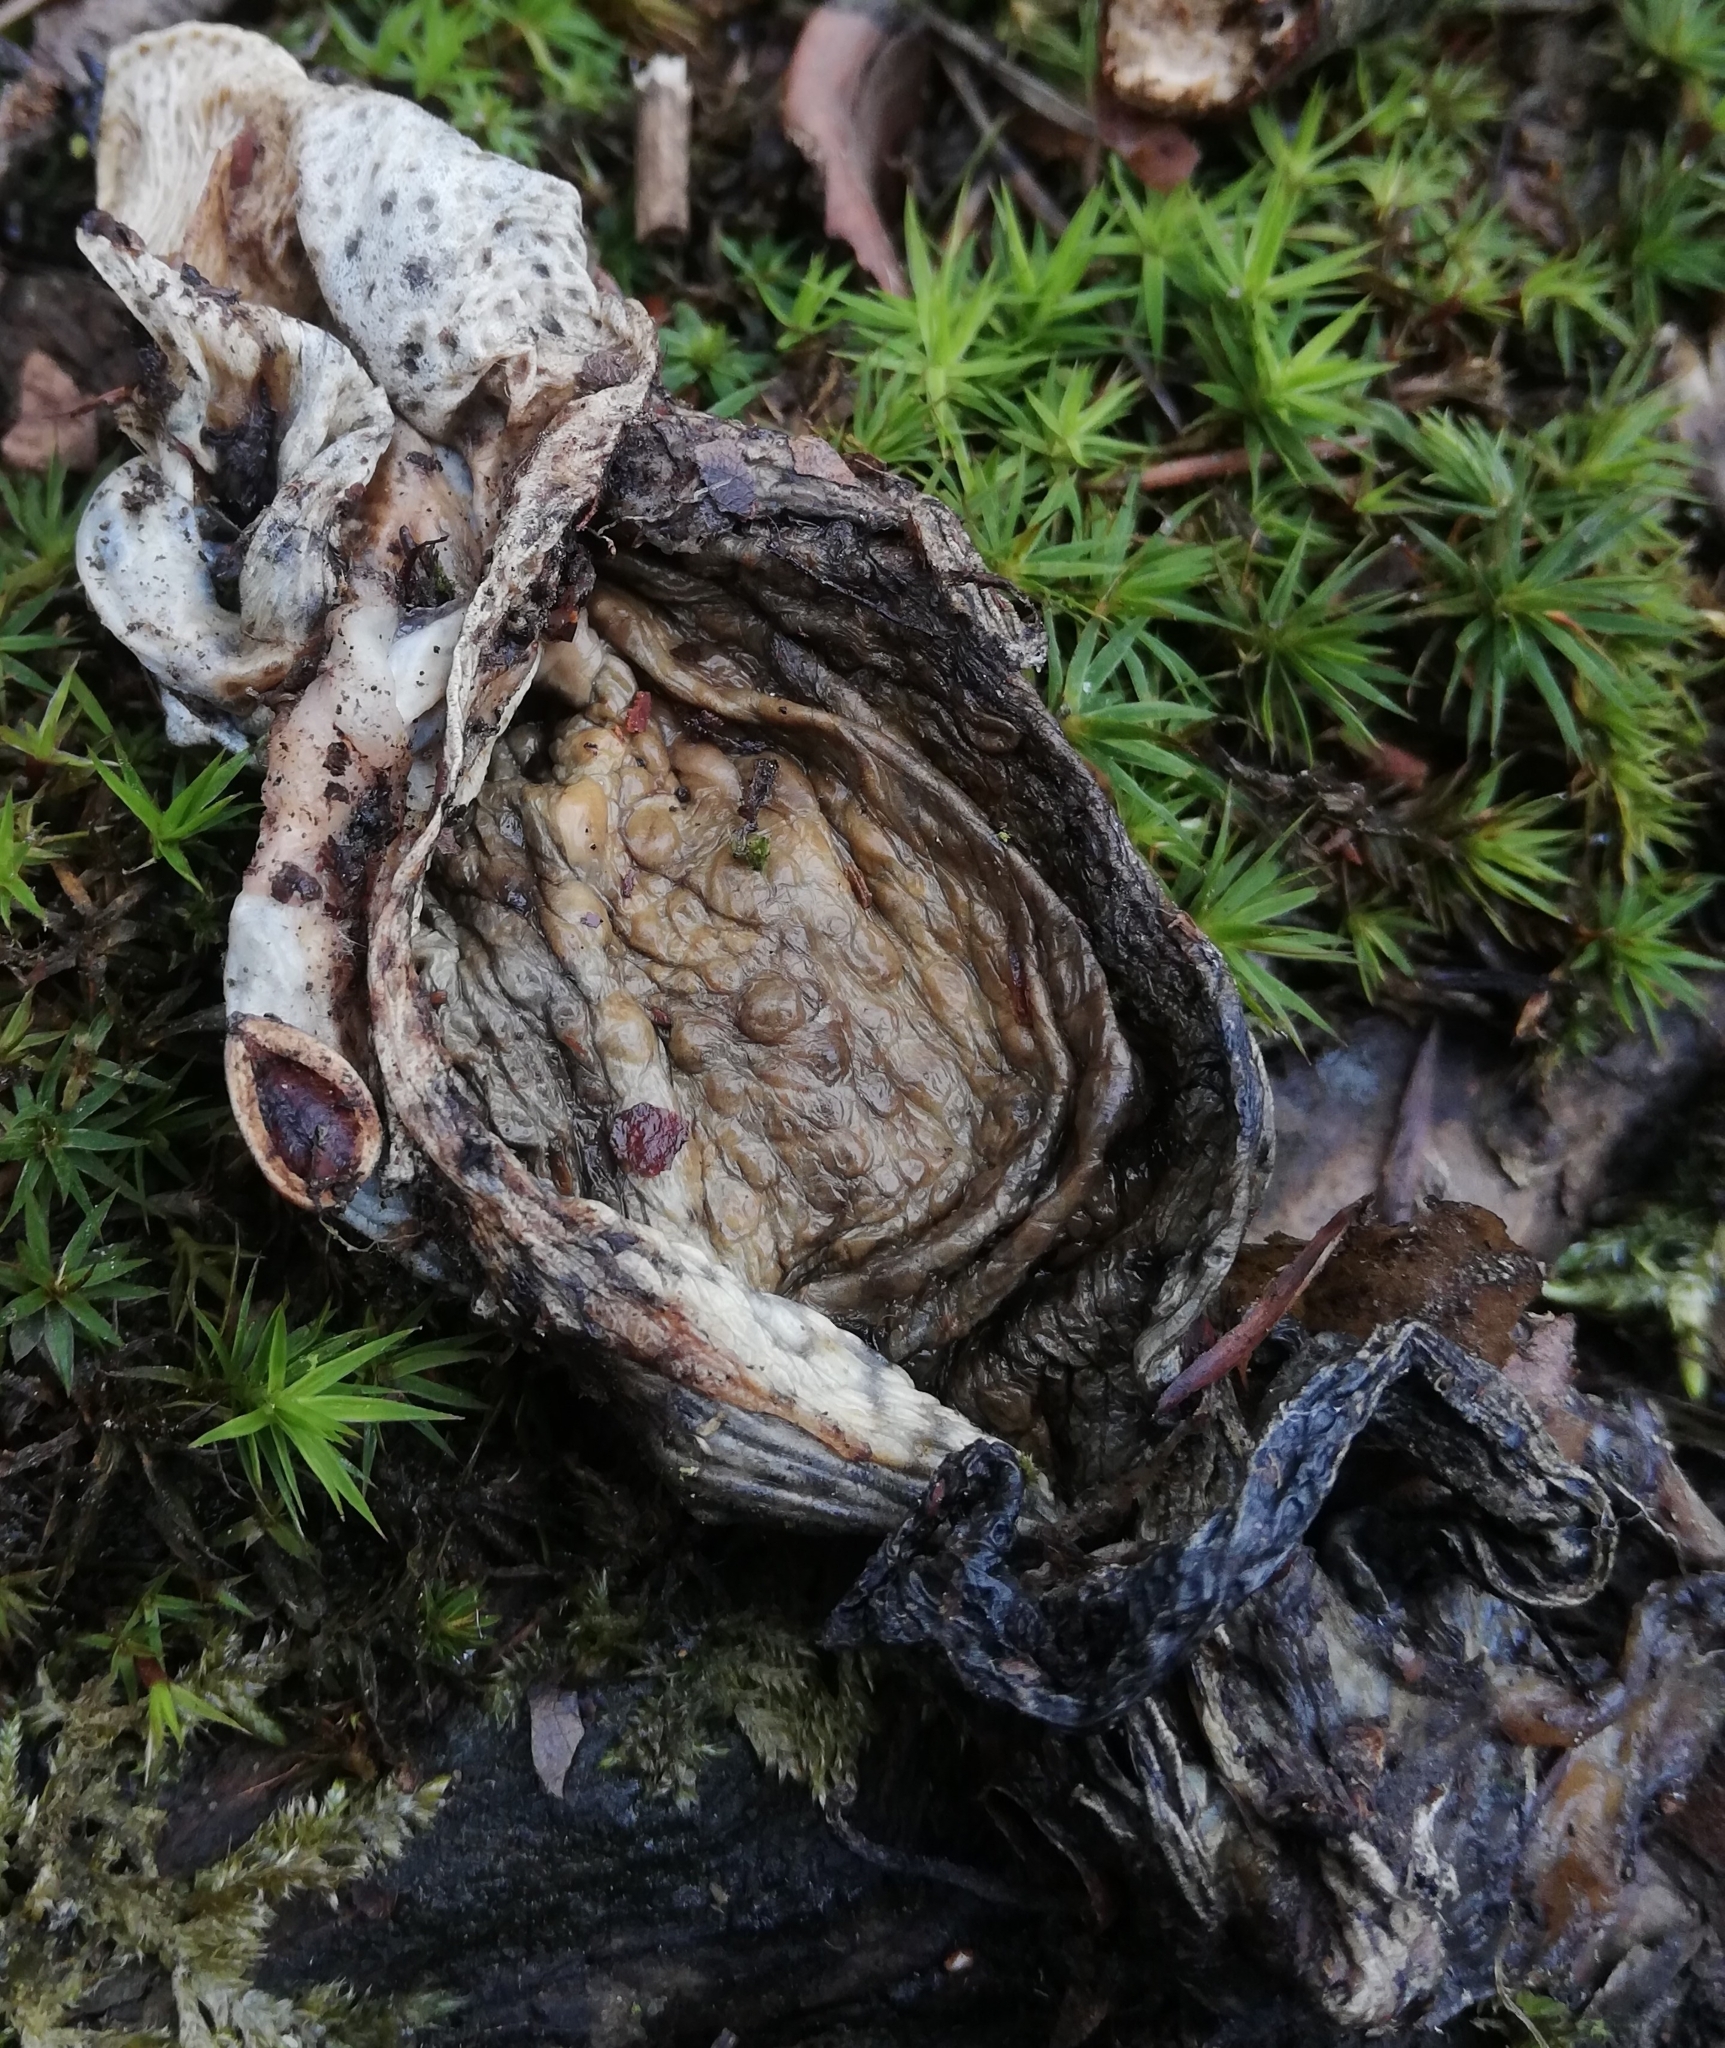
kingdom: Animalia
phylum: Chordata
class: Amphibia
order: Anura
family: Bufonidae
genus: Bufo
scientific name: Bufo bufo
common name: Common toad
